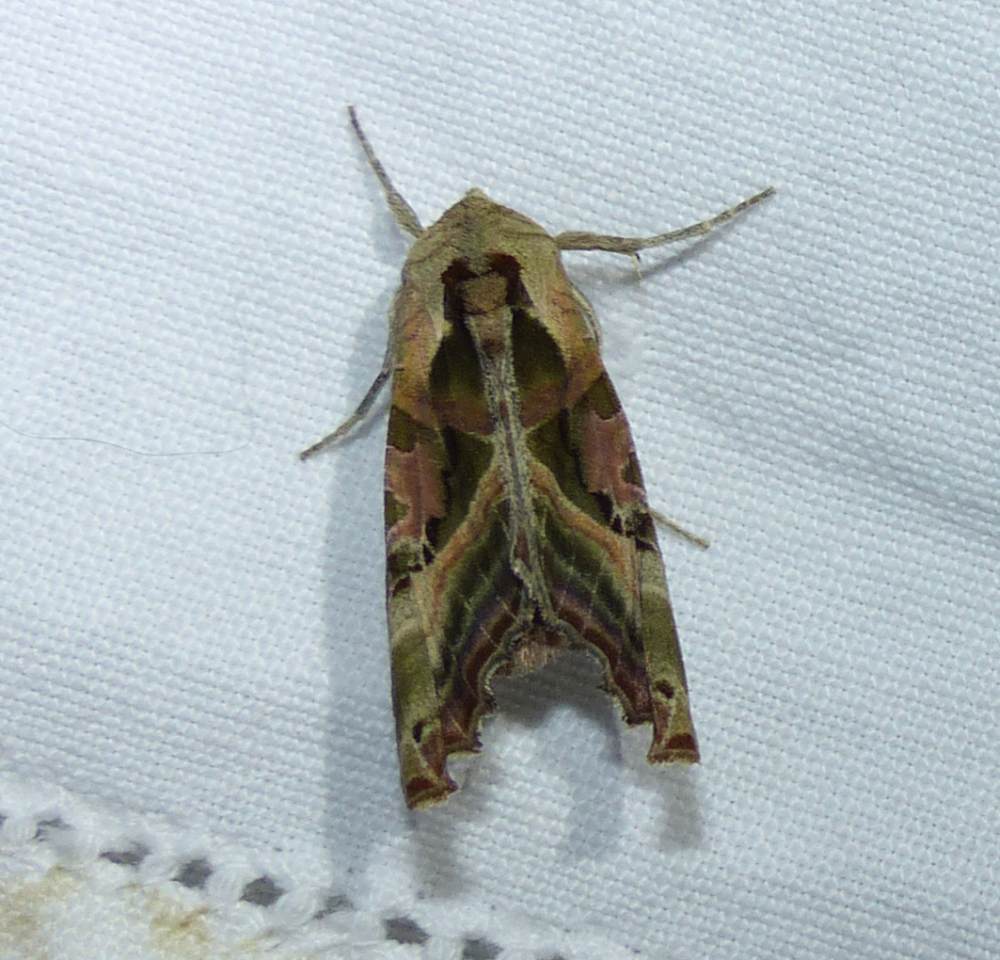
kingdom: Animalia
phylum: Arthropoda
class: Insecta
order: Lepidoptera
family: Noctuidae
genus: Phlogophora
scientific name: Phlogophora iris
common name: Olive angle shades
